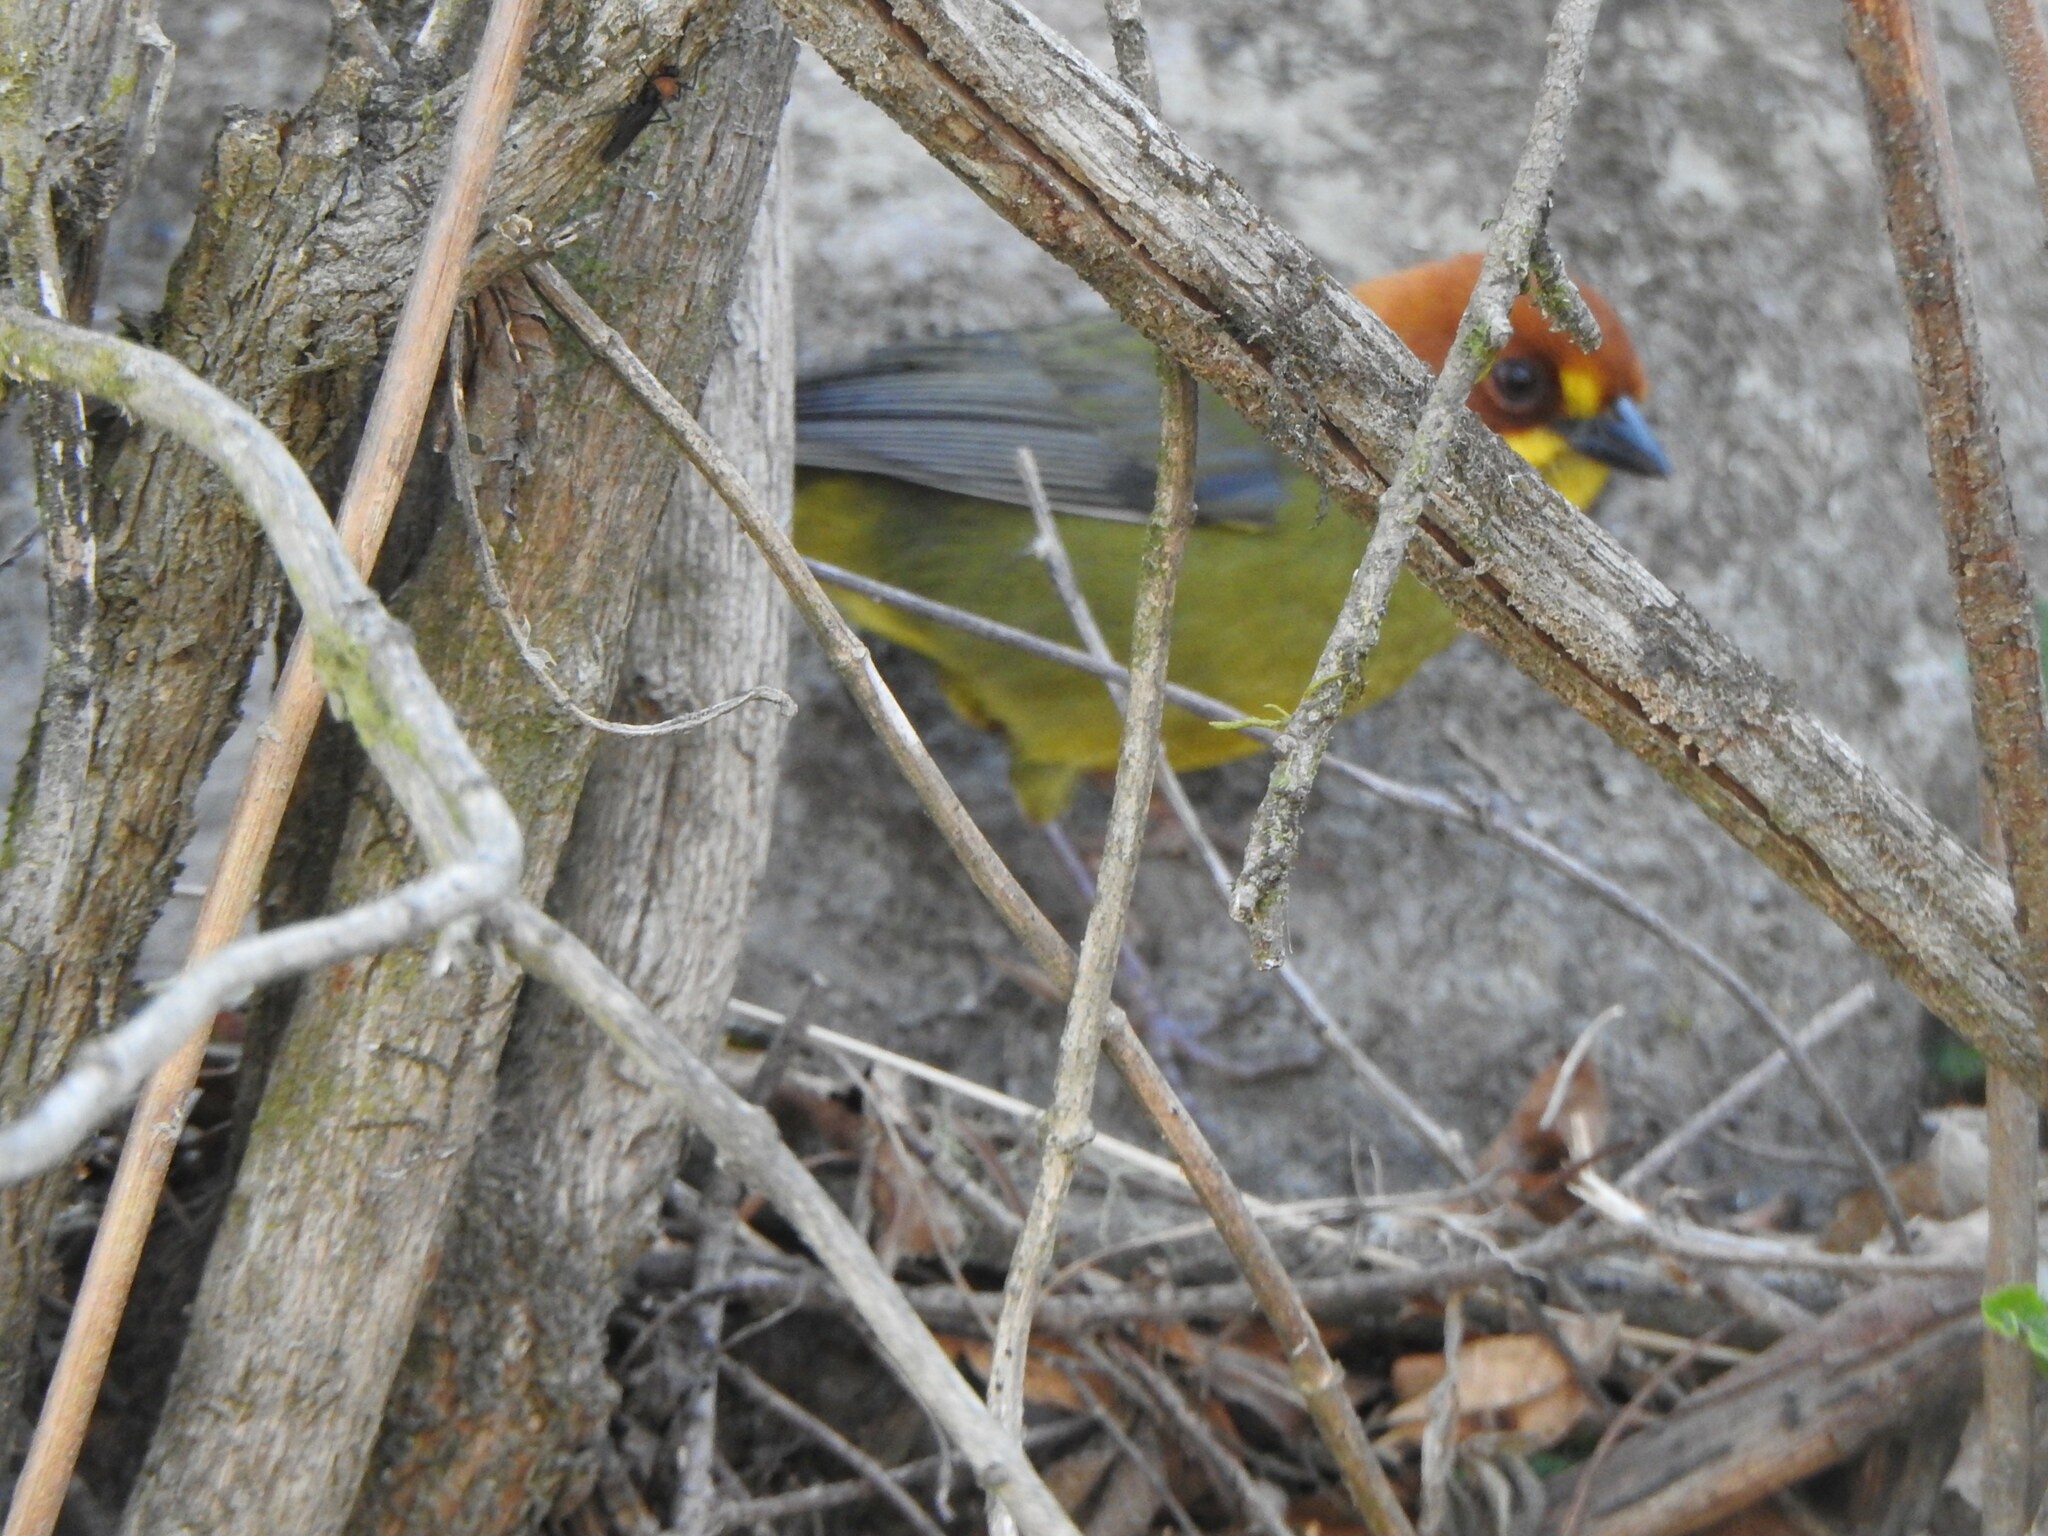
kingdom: Animalia
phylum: Chordata
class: Aves
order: Passeriformes
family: Passerellidae
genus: Atlapetes
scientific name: Atlapetes fulviceps
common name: Fulvous-headed brushfinch
